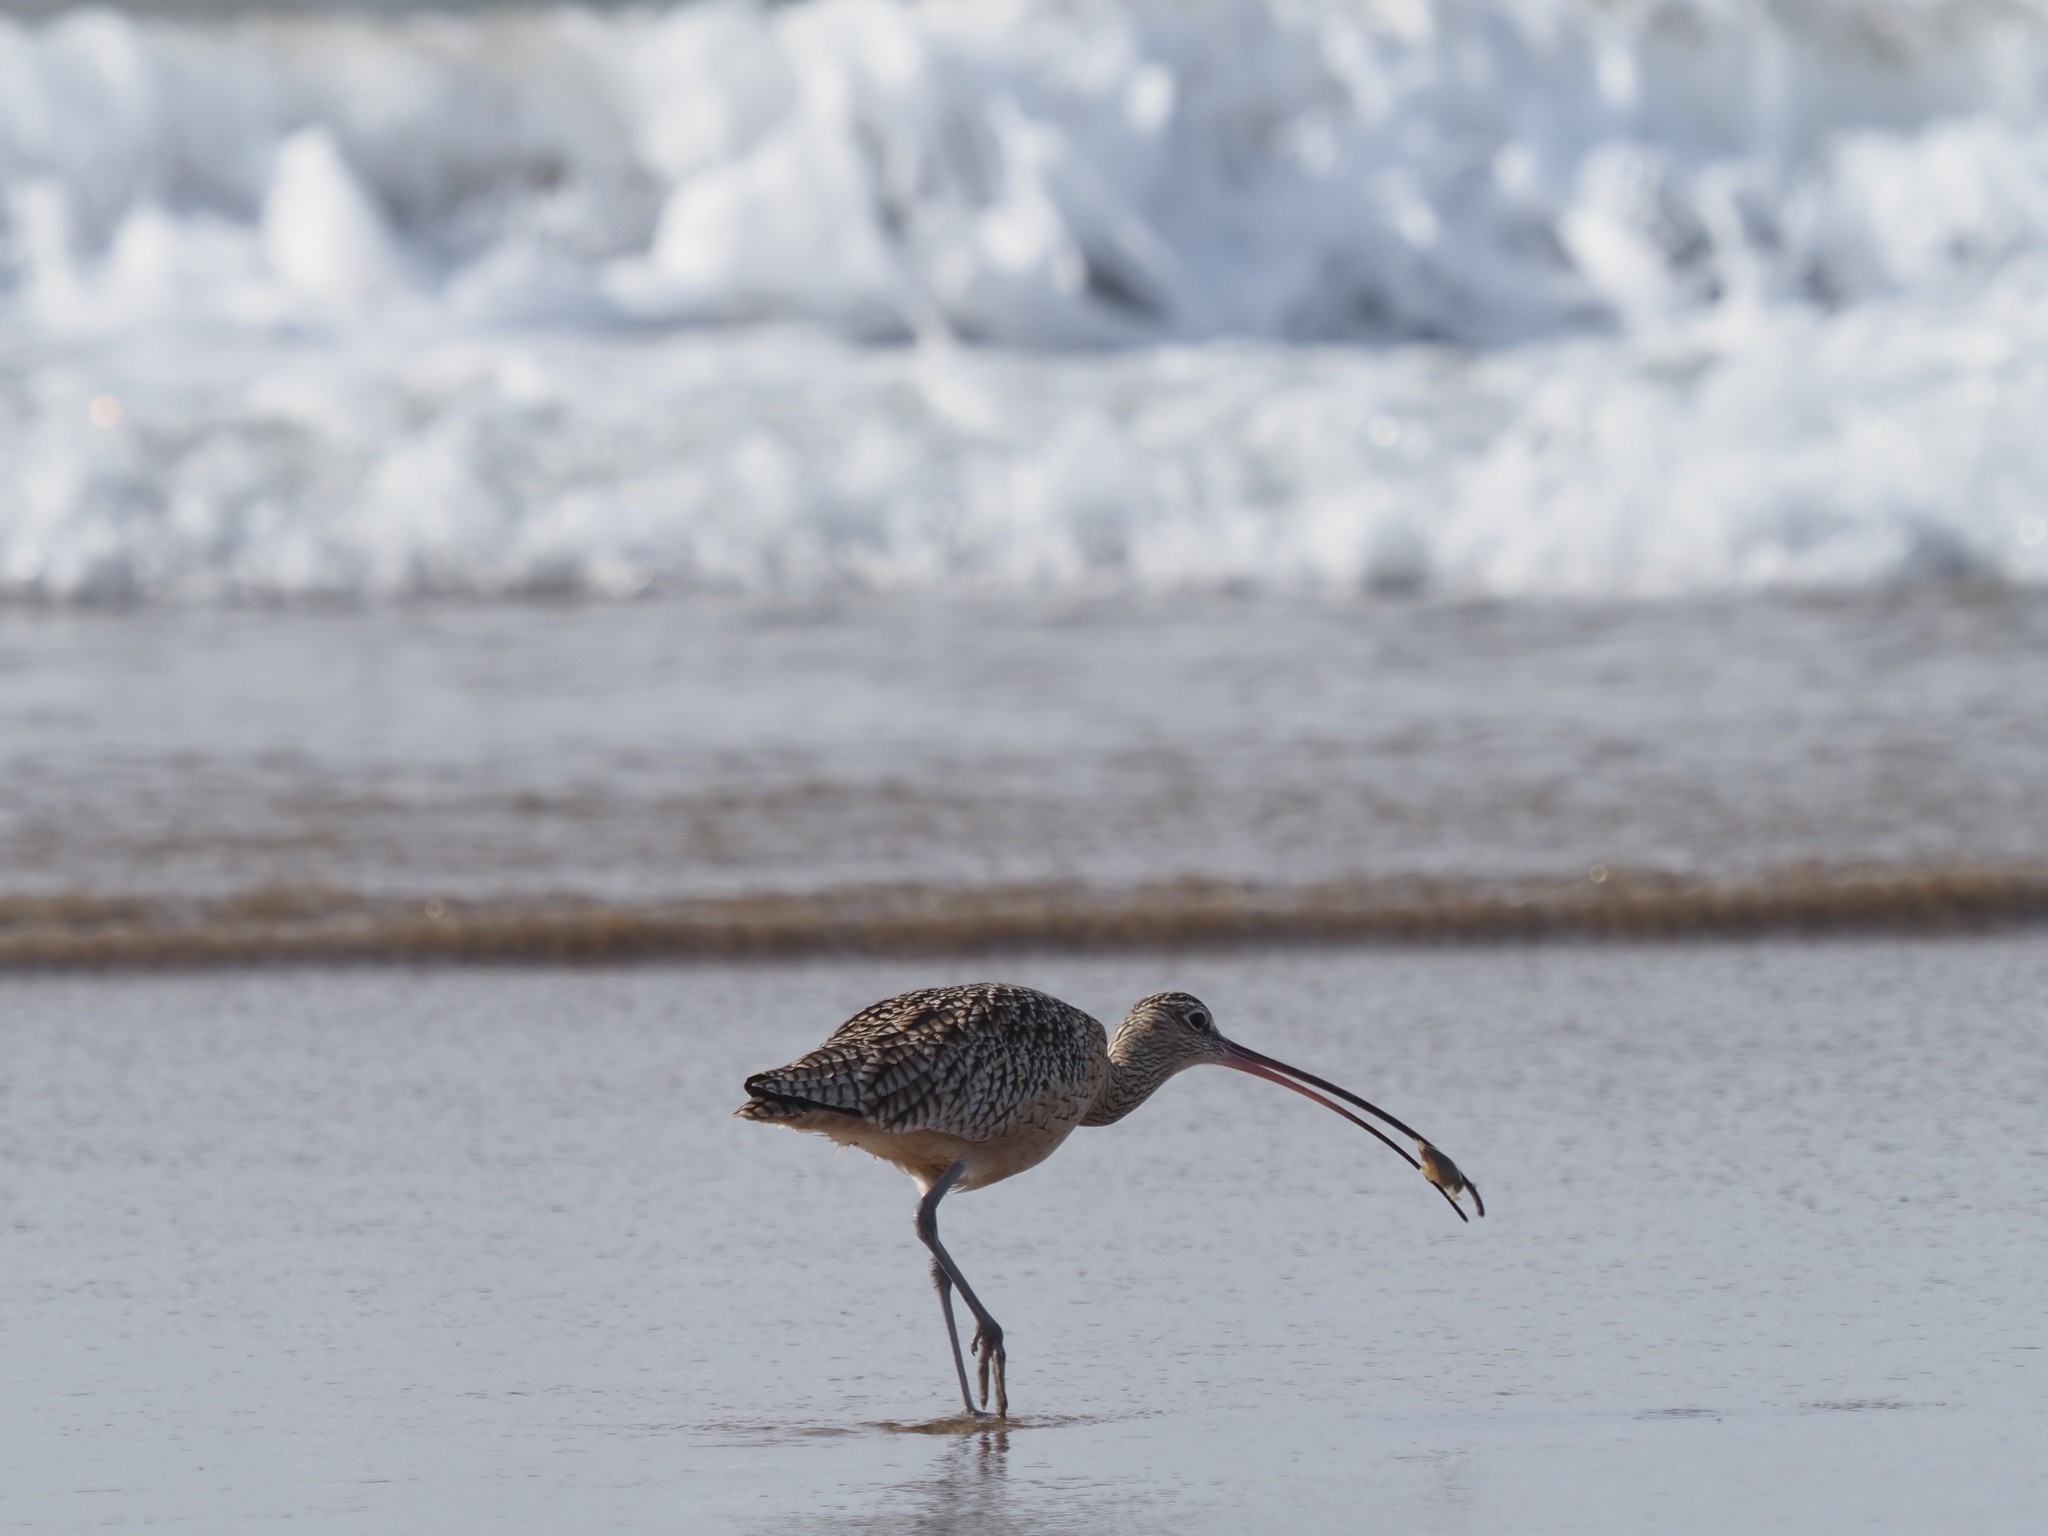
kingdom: Animalia
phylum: Chordata
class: Aves
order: Charadriiformes
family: Scolopacidae
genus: Numenius
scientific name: Numenius americanus
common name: Long-billed curlew
